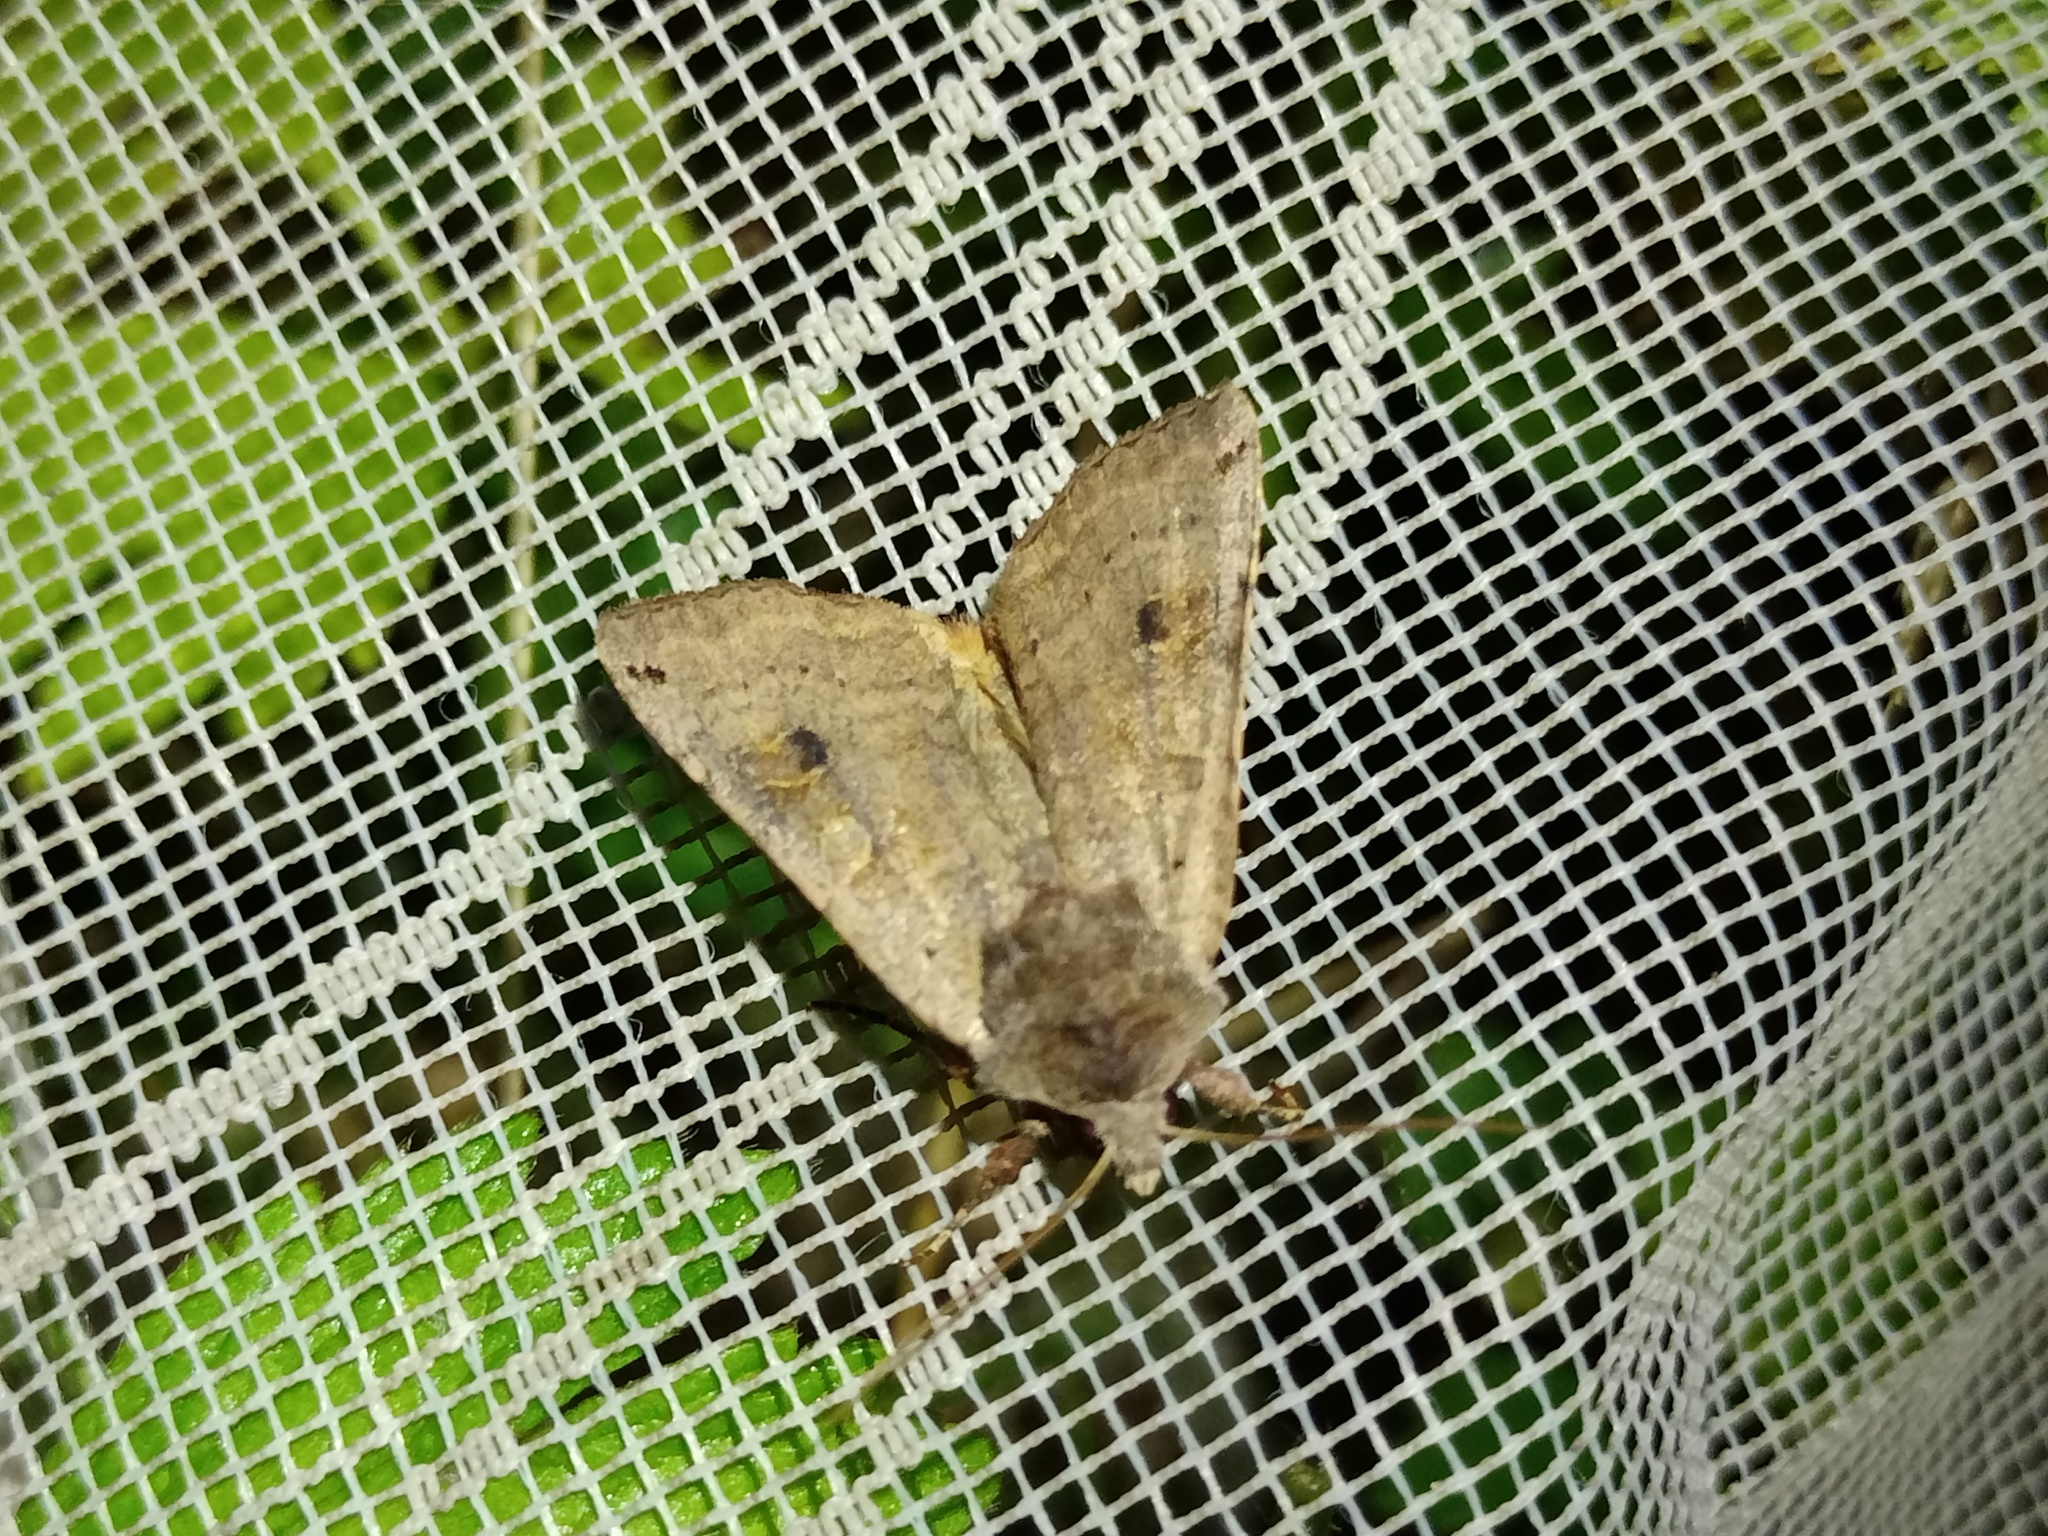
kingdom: Animalia
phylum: Arthropoda
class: Insecta
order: Lepidoptera
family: Noctuidae
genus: Xestia
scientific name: Xestia baja
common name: Dotted clay
